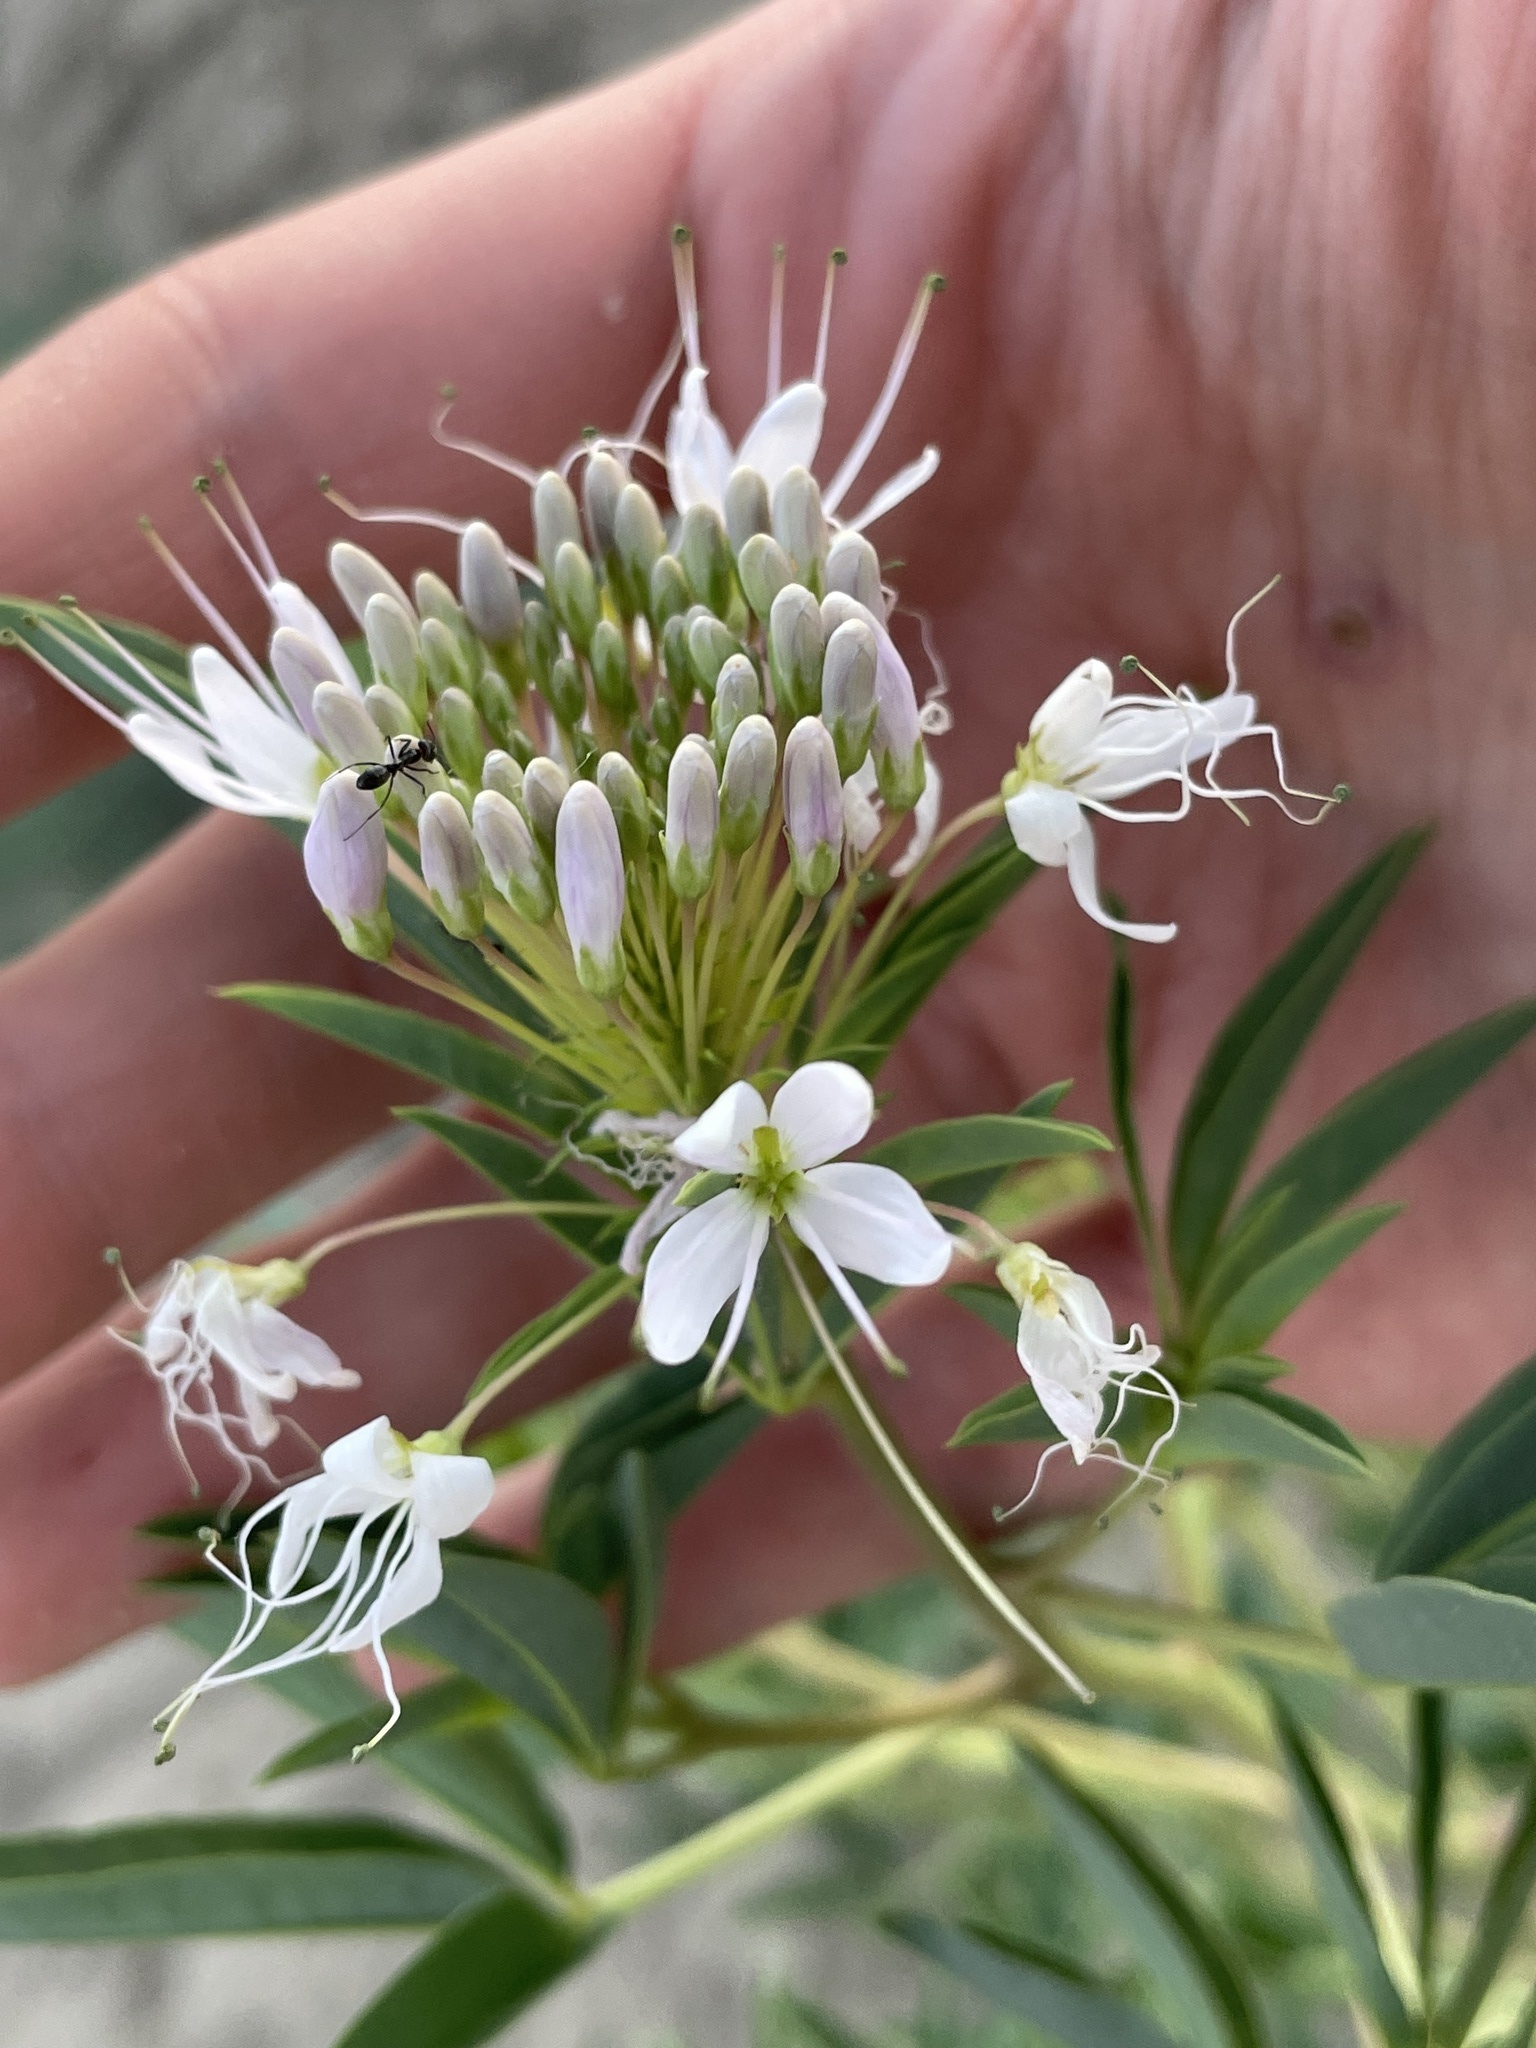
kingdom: Plantae
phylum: Tracheophyta
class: Magnoliopsida
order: Brassicales
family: Cleomaceae
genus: Cleomella
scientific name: Cleomella serrulata
